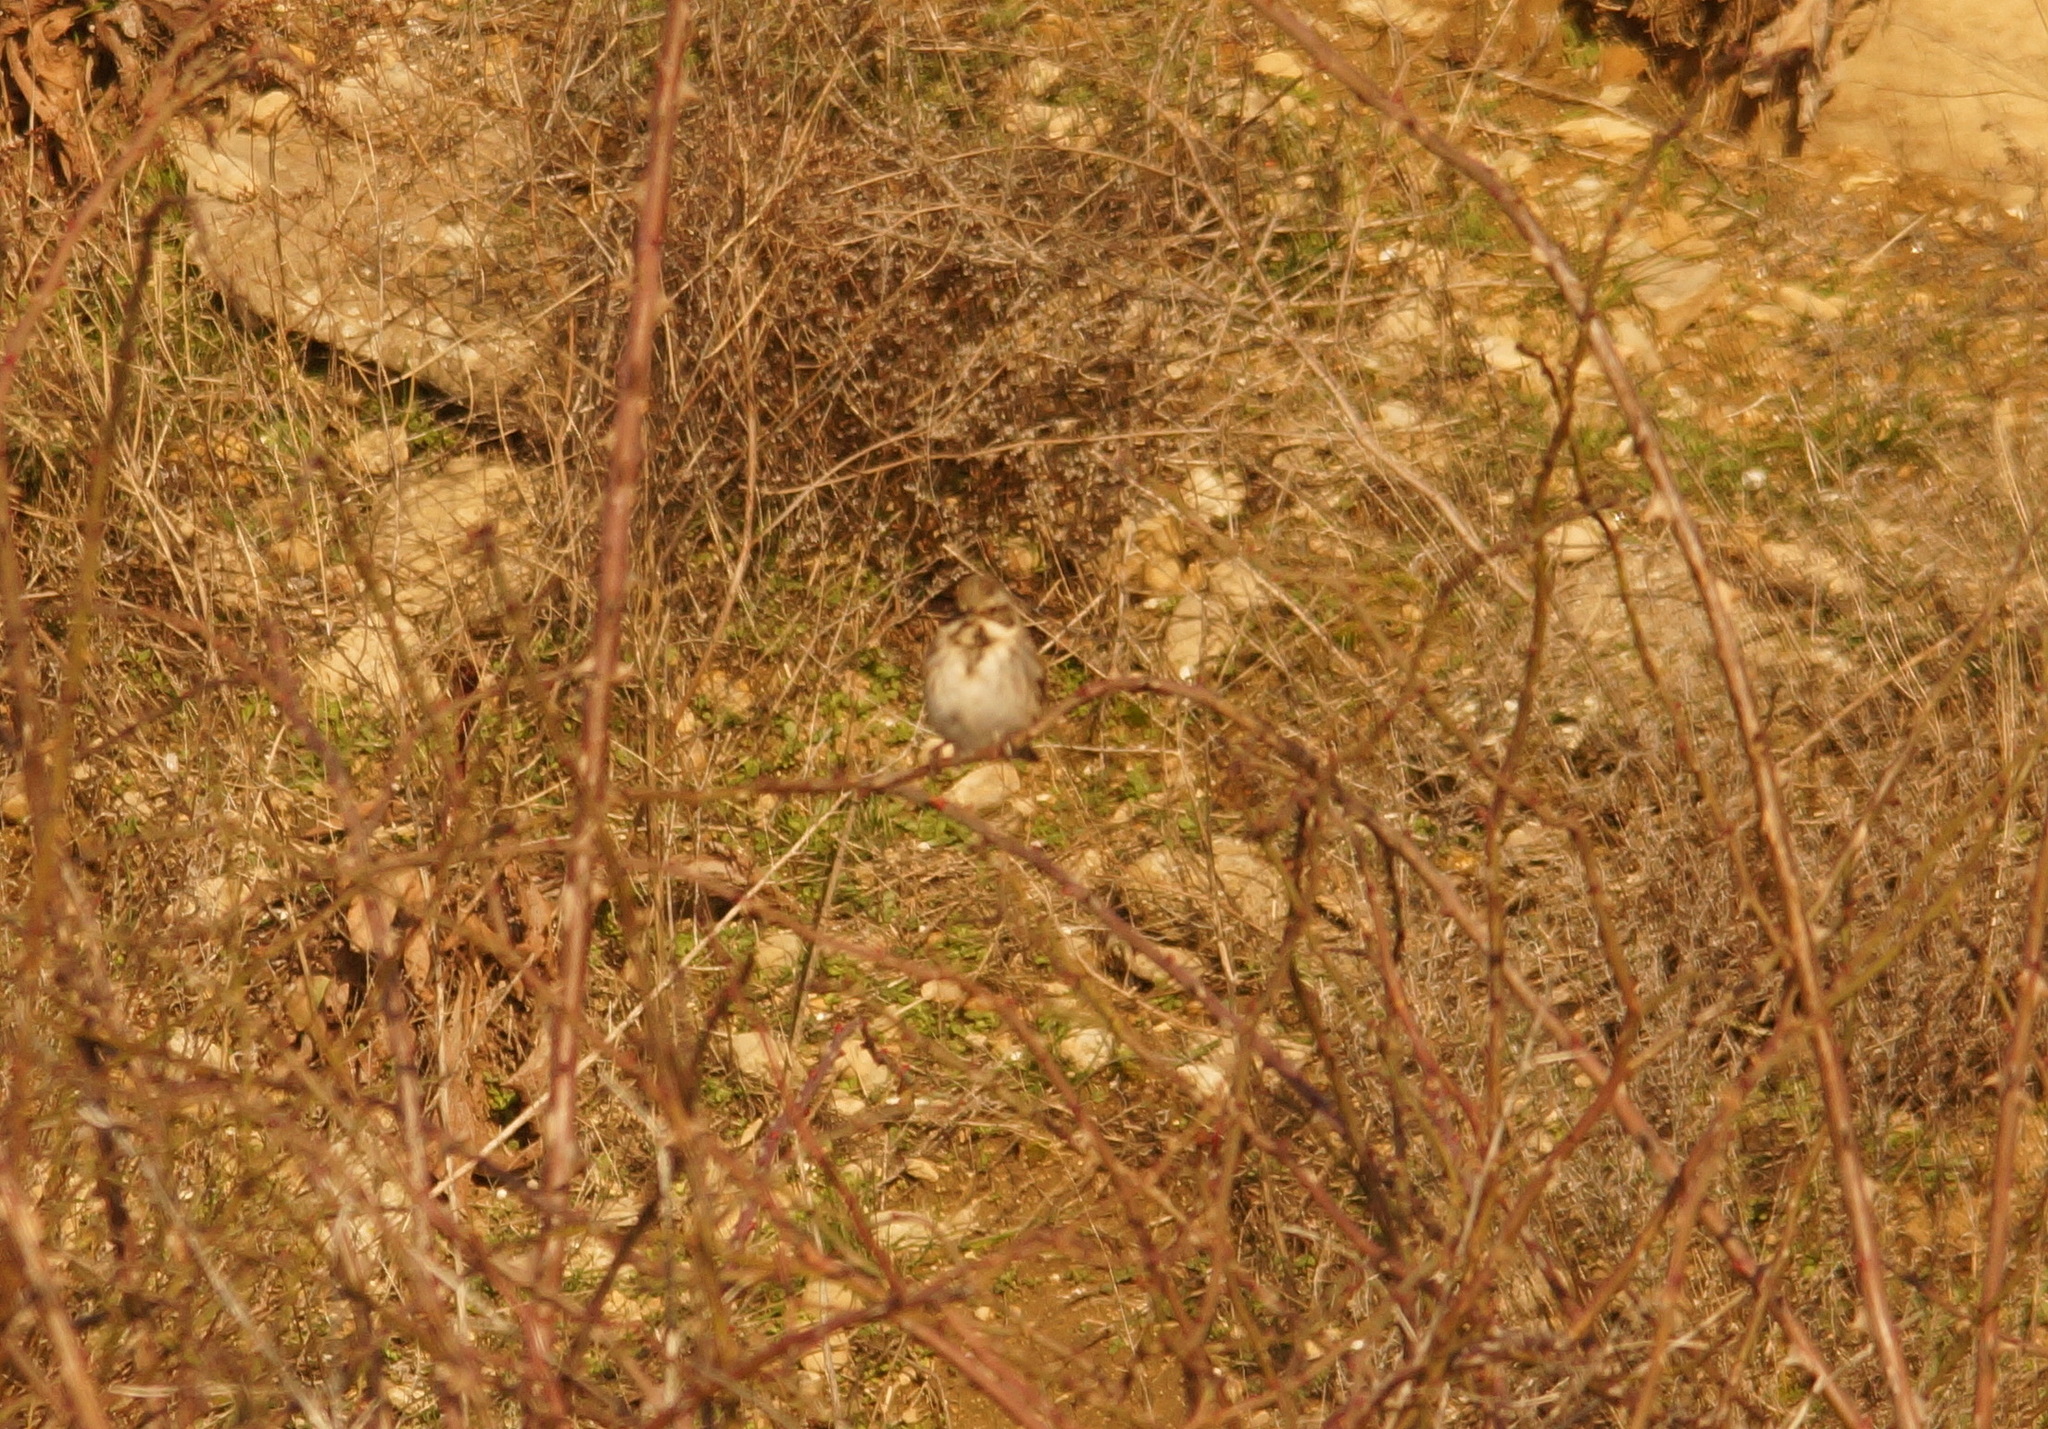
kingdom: Animalia
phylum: Chordata
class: Aves
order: Passeriformes
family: Emberizidae
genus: Emberiza
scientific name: Emberiza schoeniclus
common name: Reed bunting
